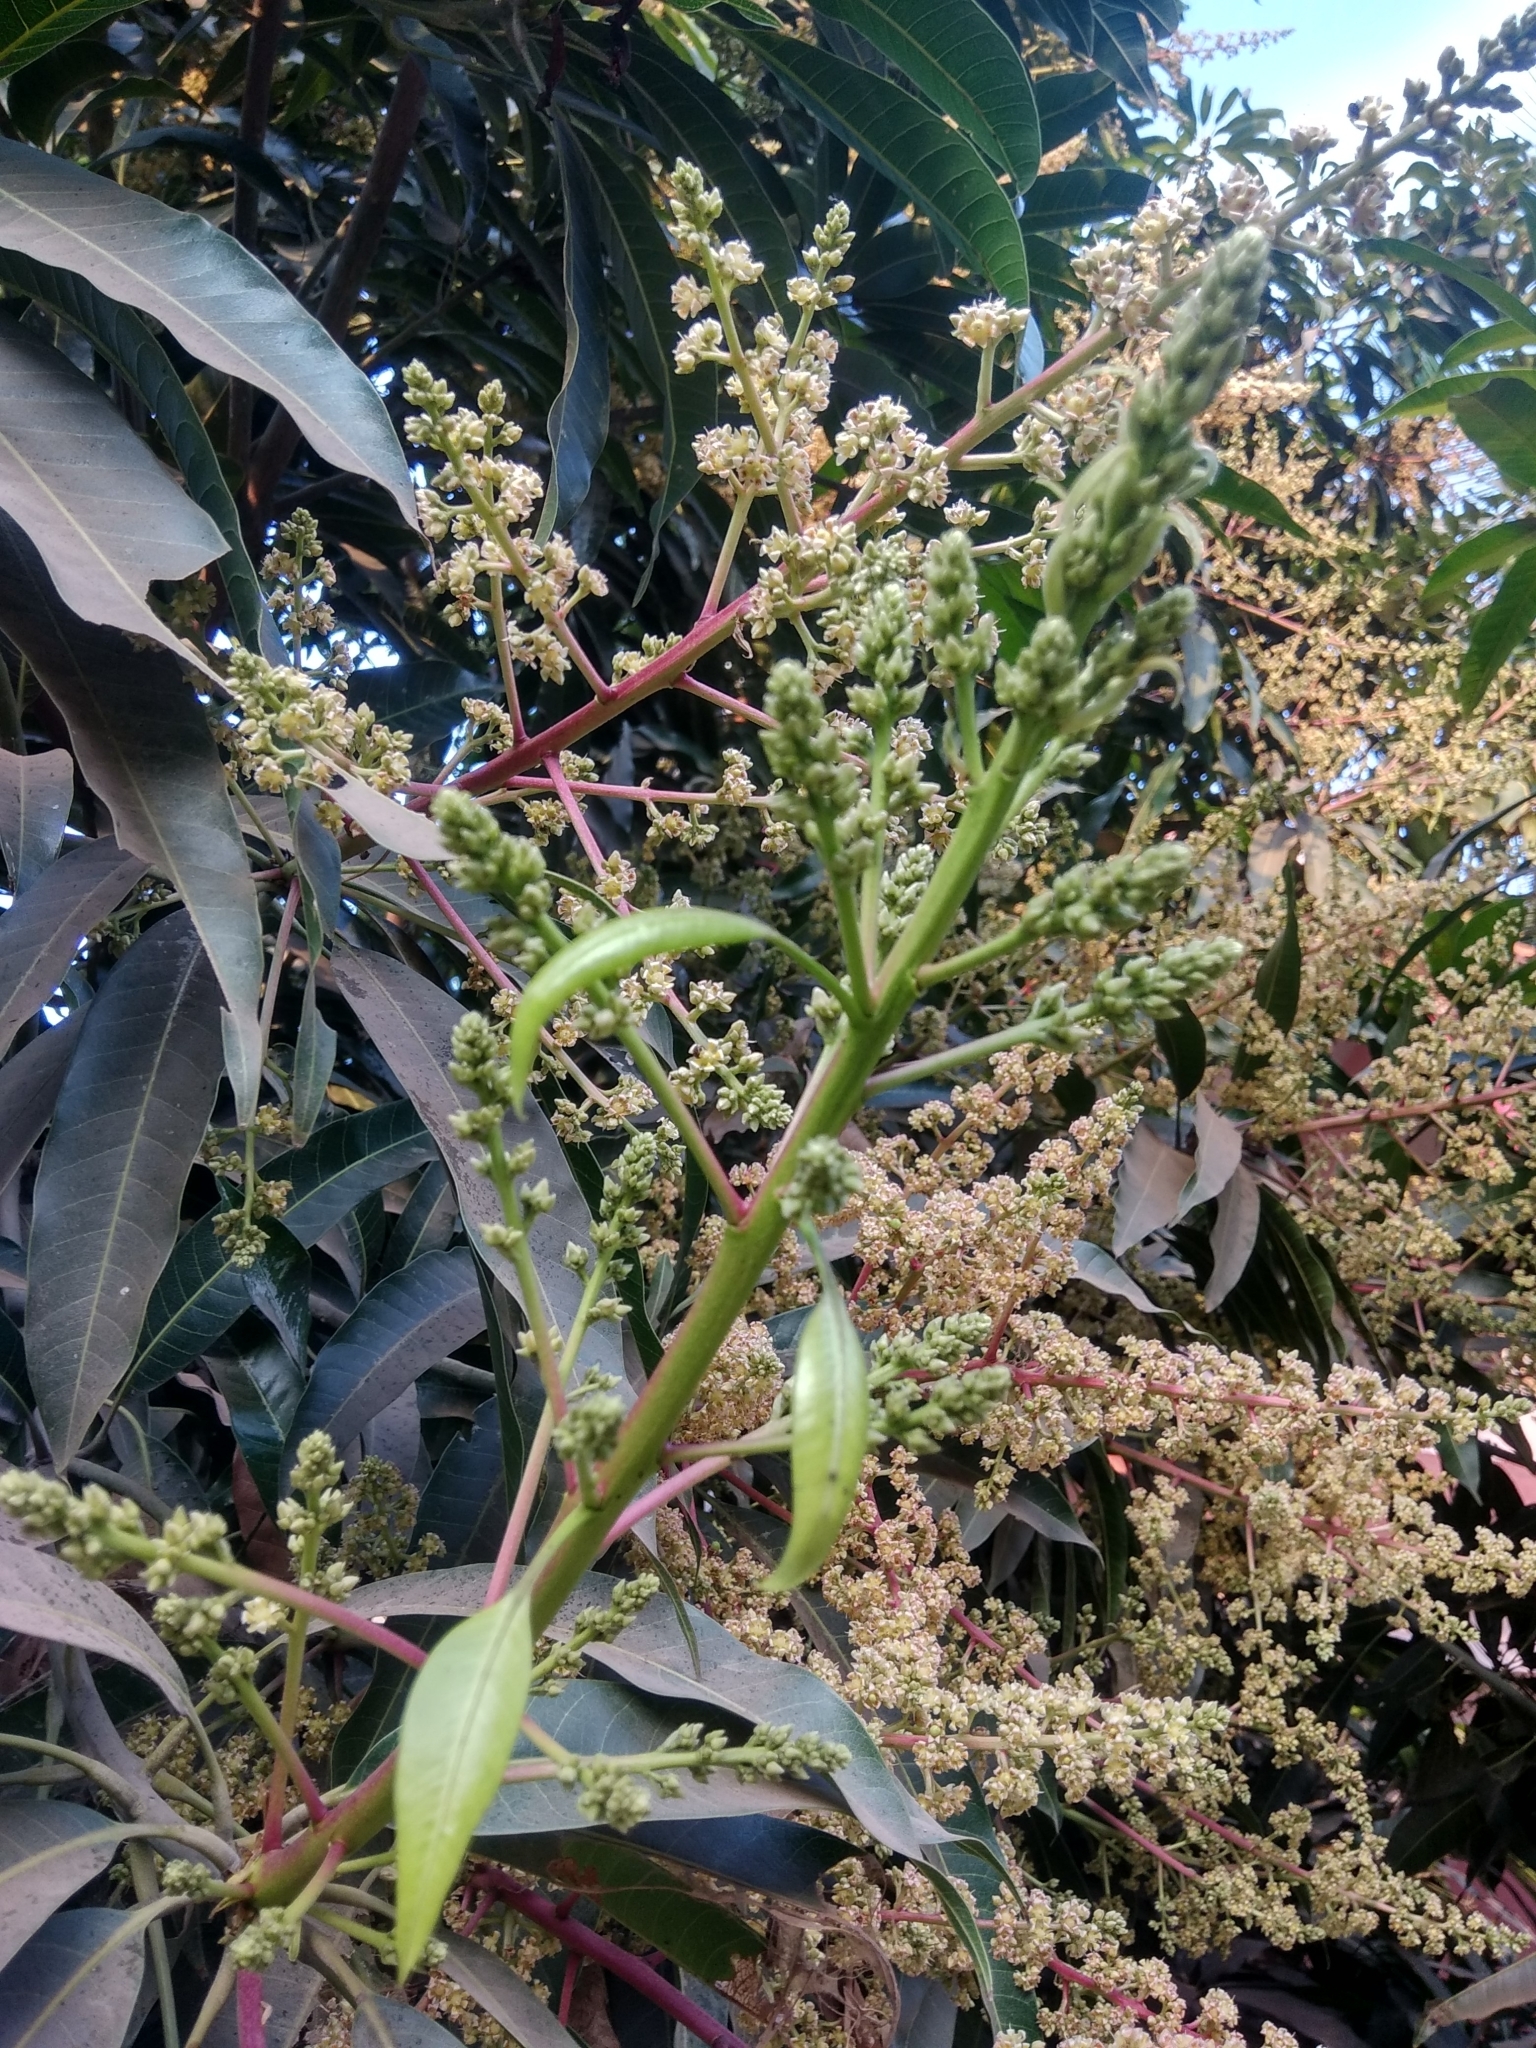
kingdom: Plantae
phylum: Tracheophyta
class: Magnoliopsida
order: Sapindales
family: Anacardiaceae
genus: Mangifera
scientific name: Mangifera indica
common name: Mango
